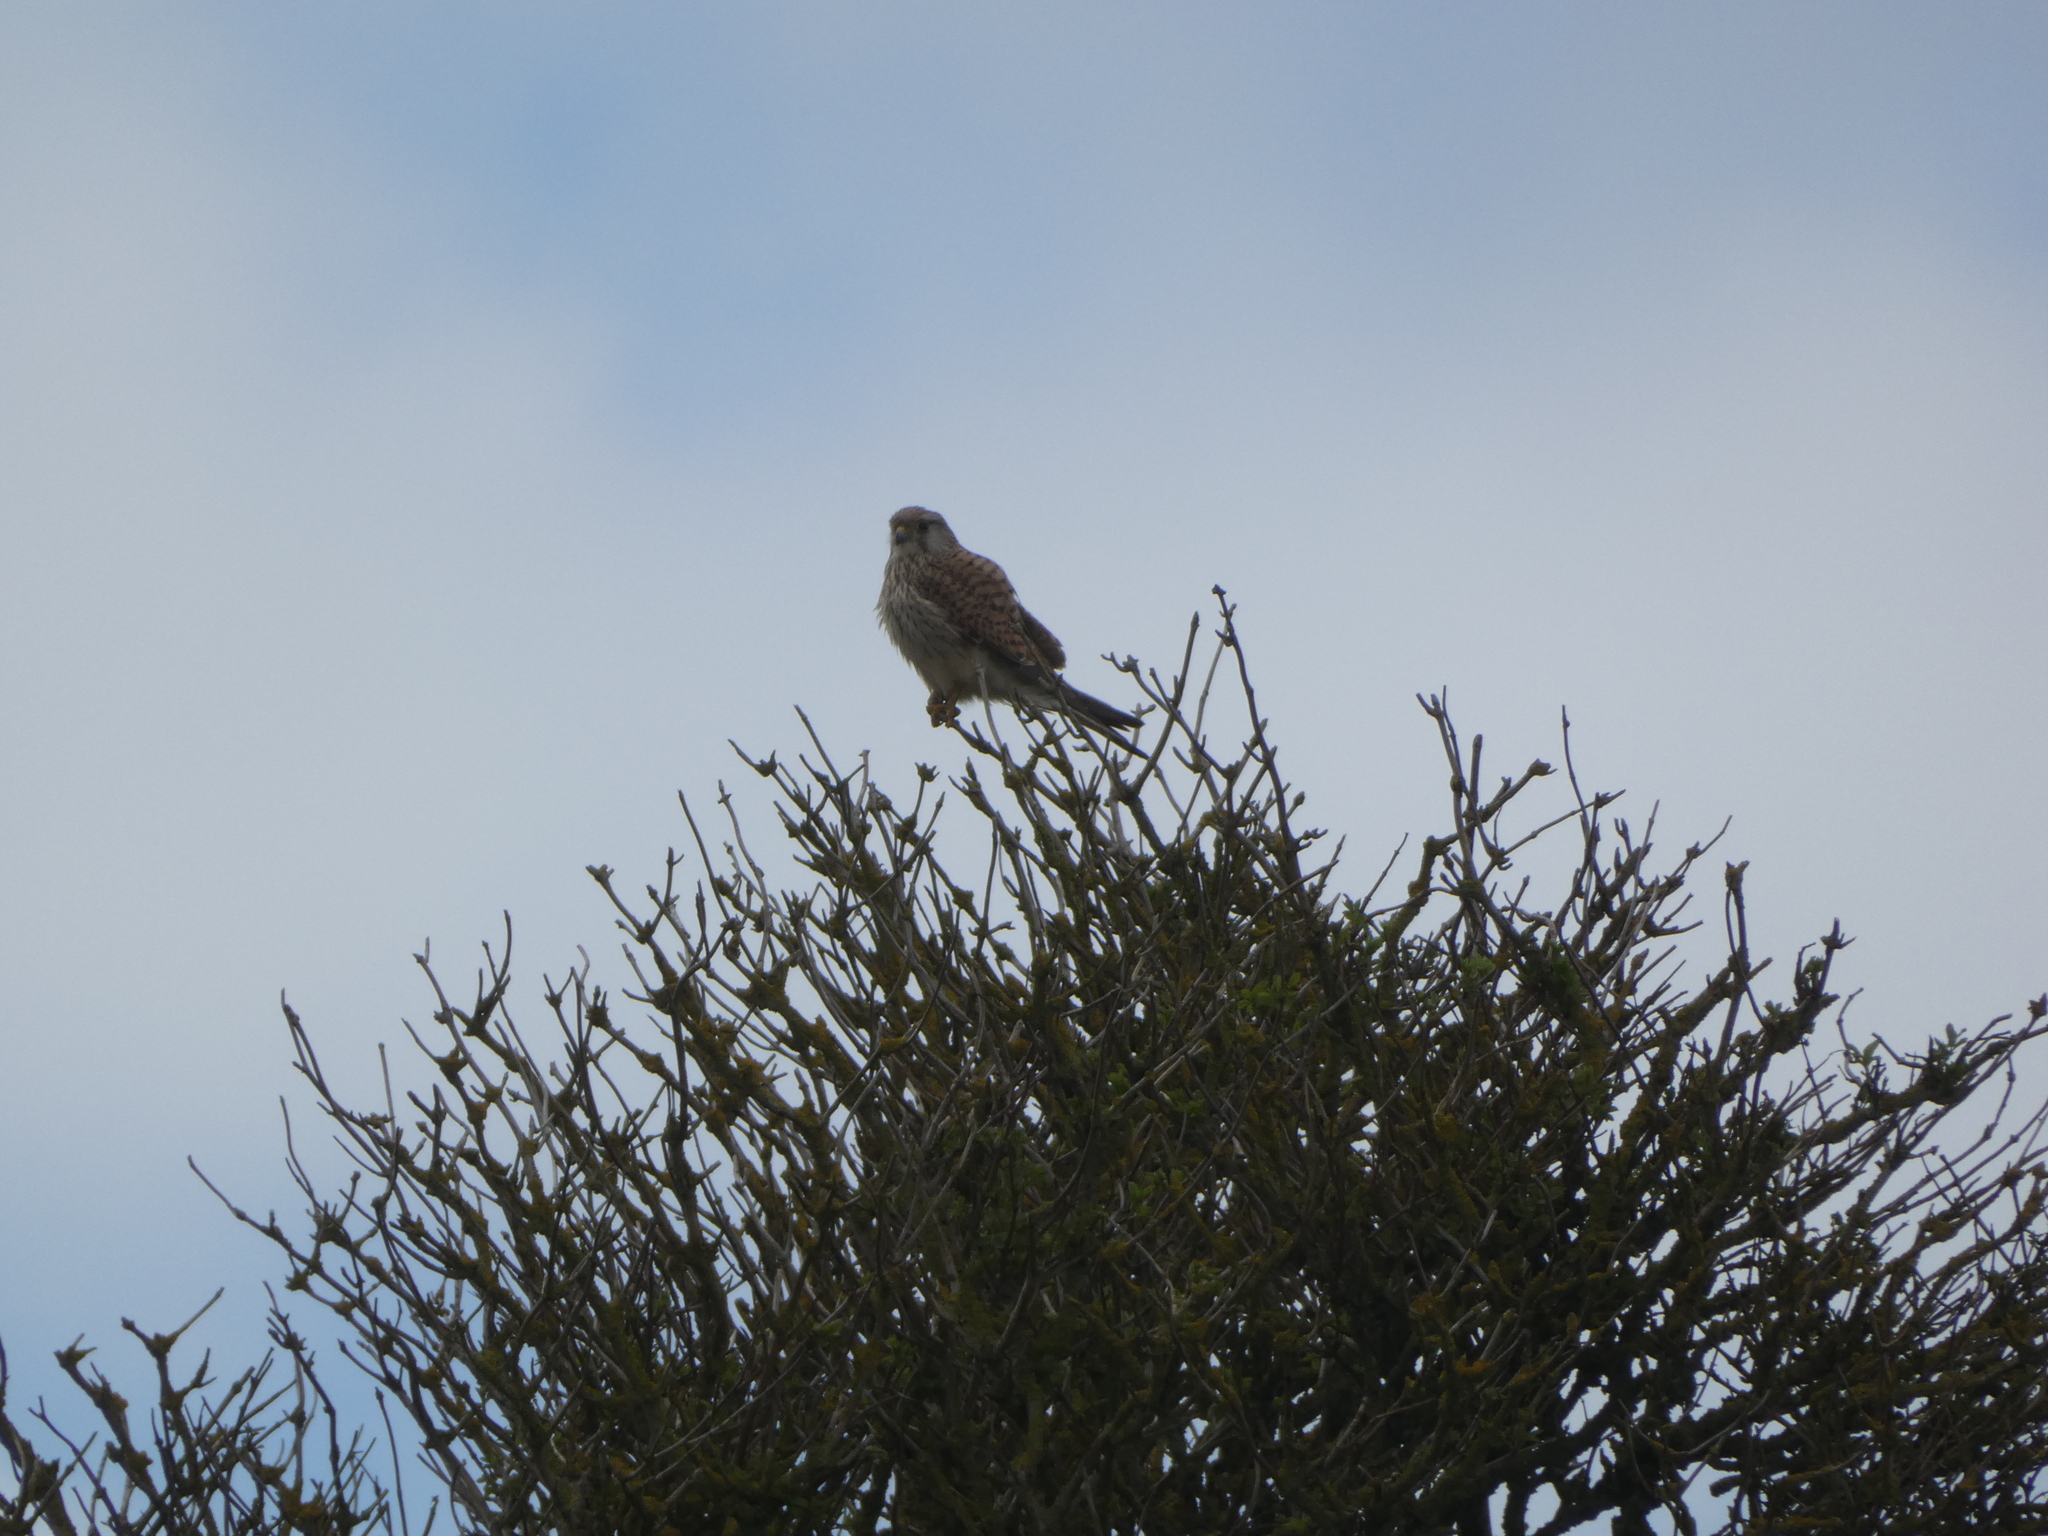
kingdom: Animalia
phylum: Chordata
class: Aves
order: Falconiformes
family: Falconidae
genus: Falco
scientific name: Falco tinnunculus
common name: Common kestrel
